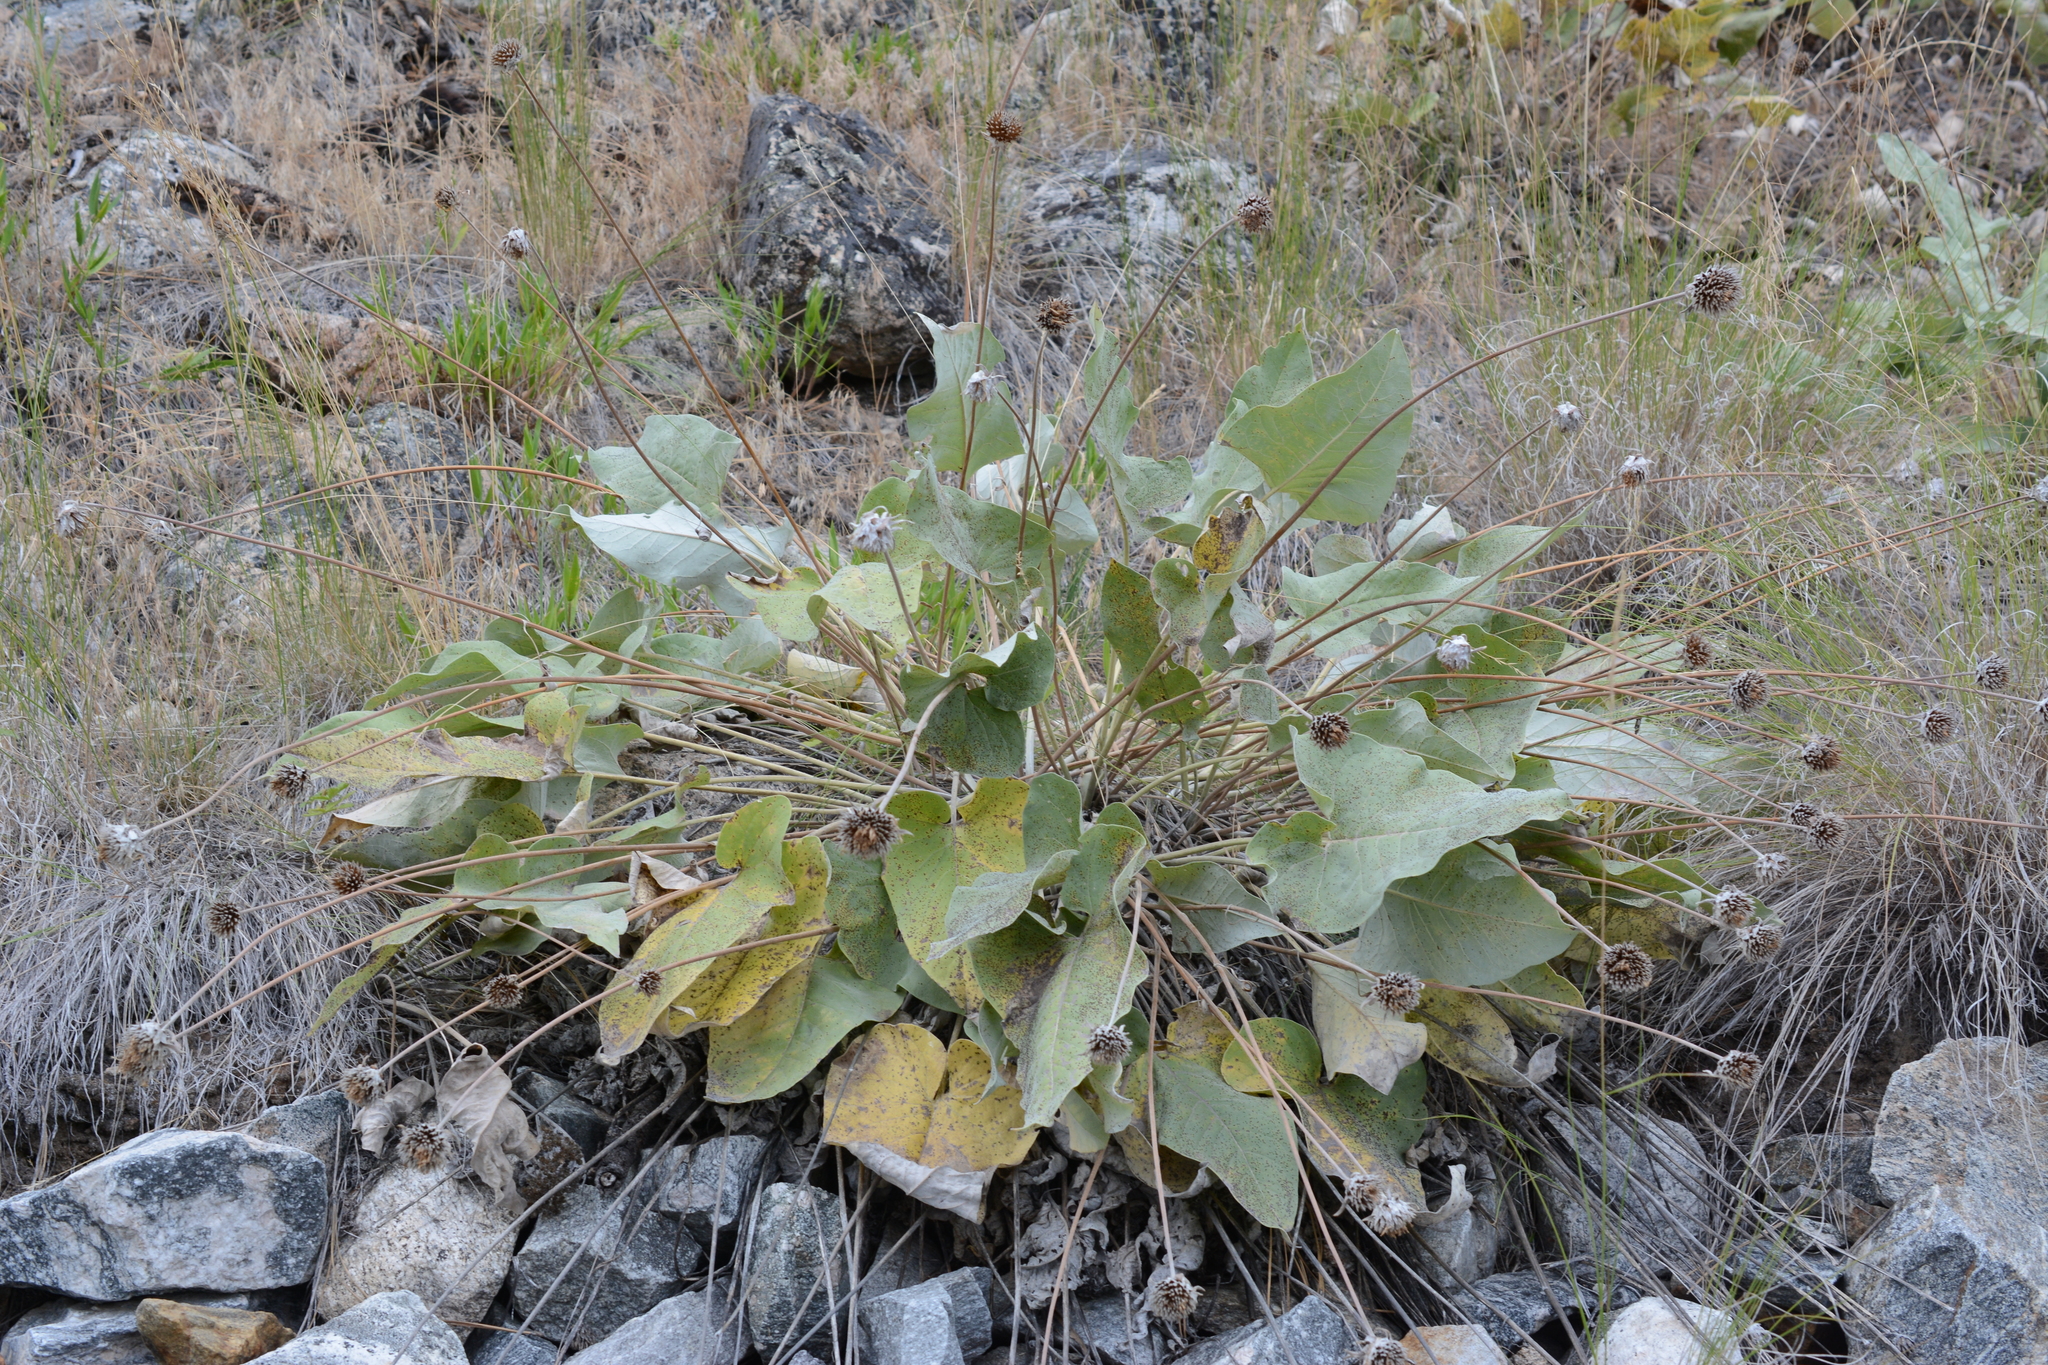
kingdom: Plantae
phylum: Tracheophyta
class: Magnoliopsida
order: Asterales
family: Asteraceae
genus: Wyethia
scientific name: Wyethia sagittata
